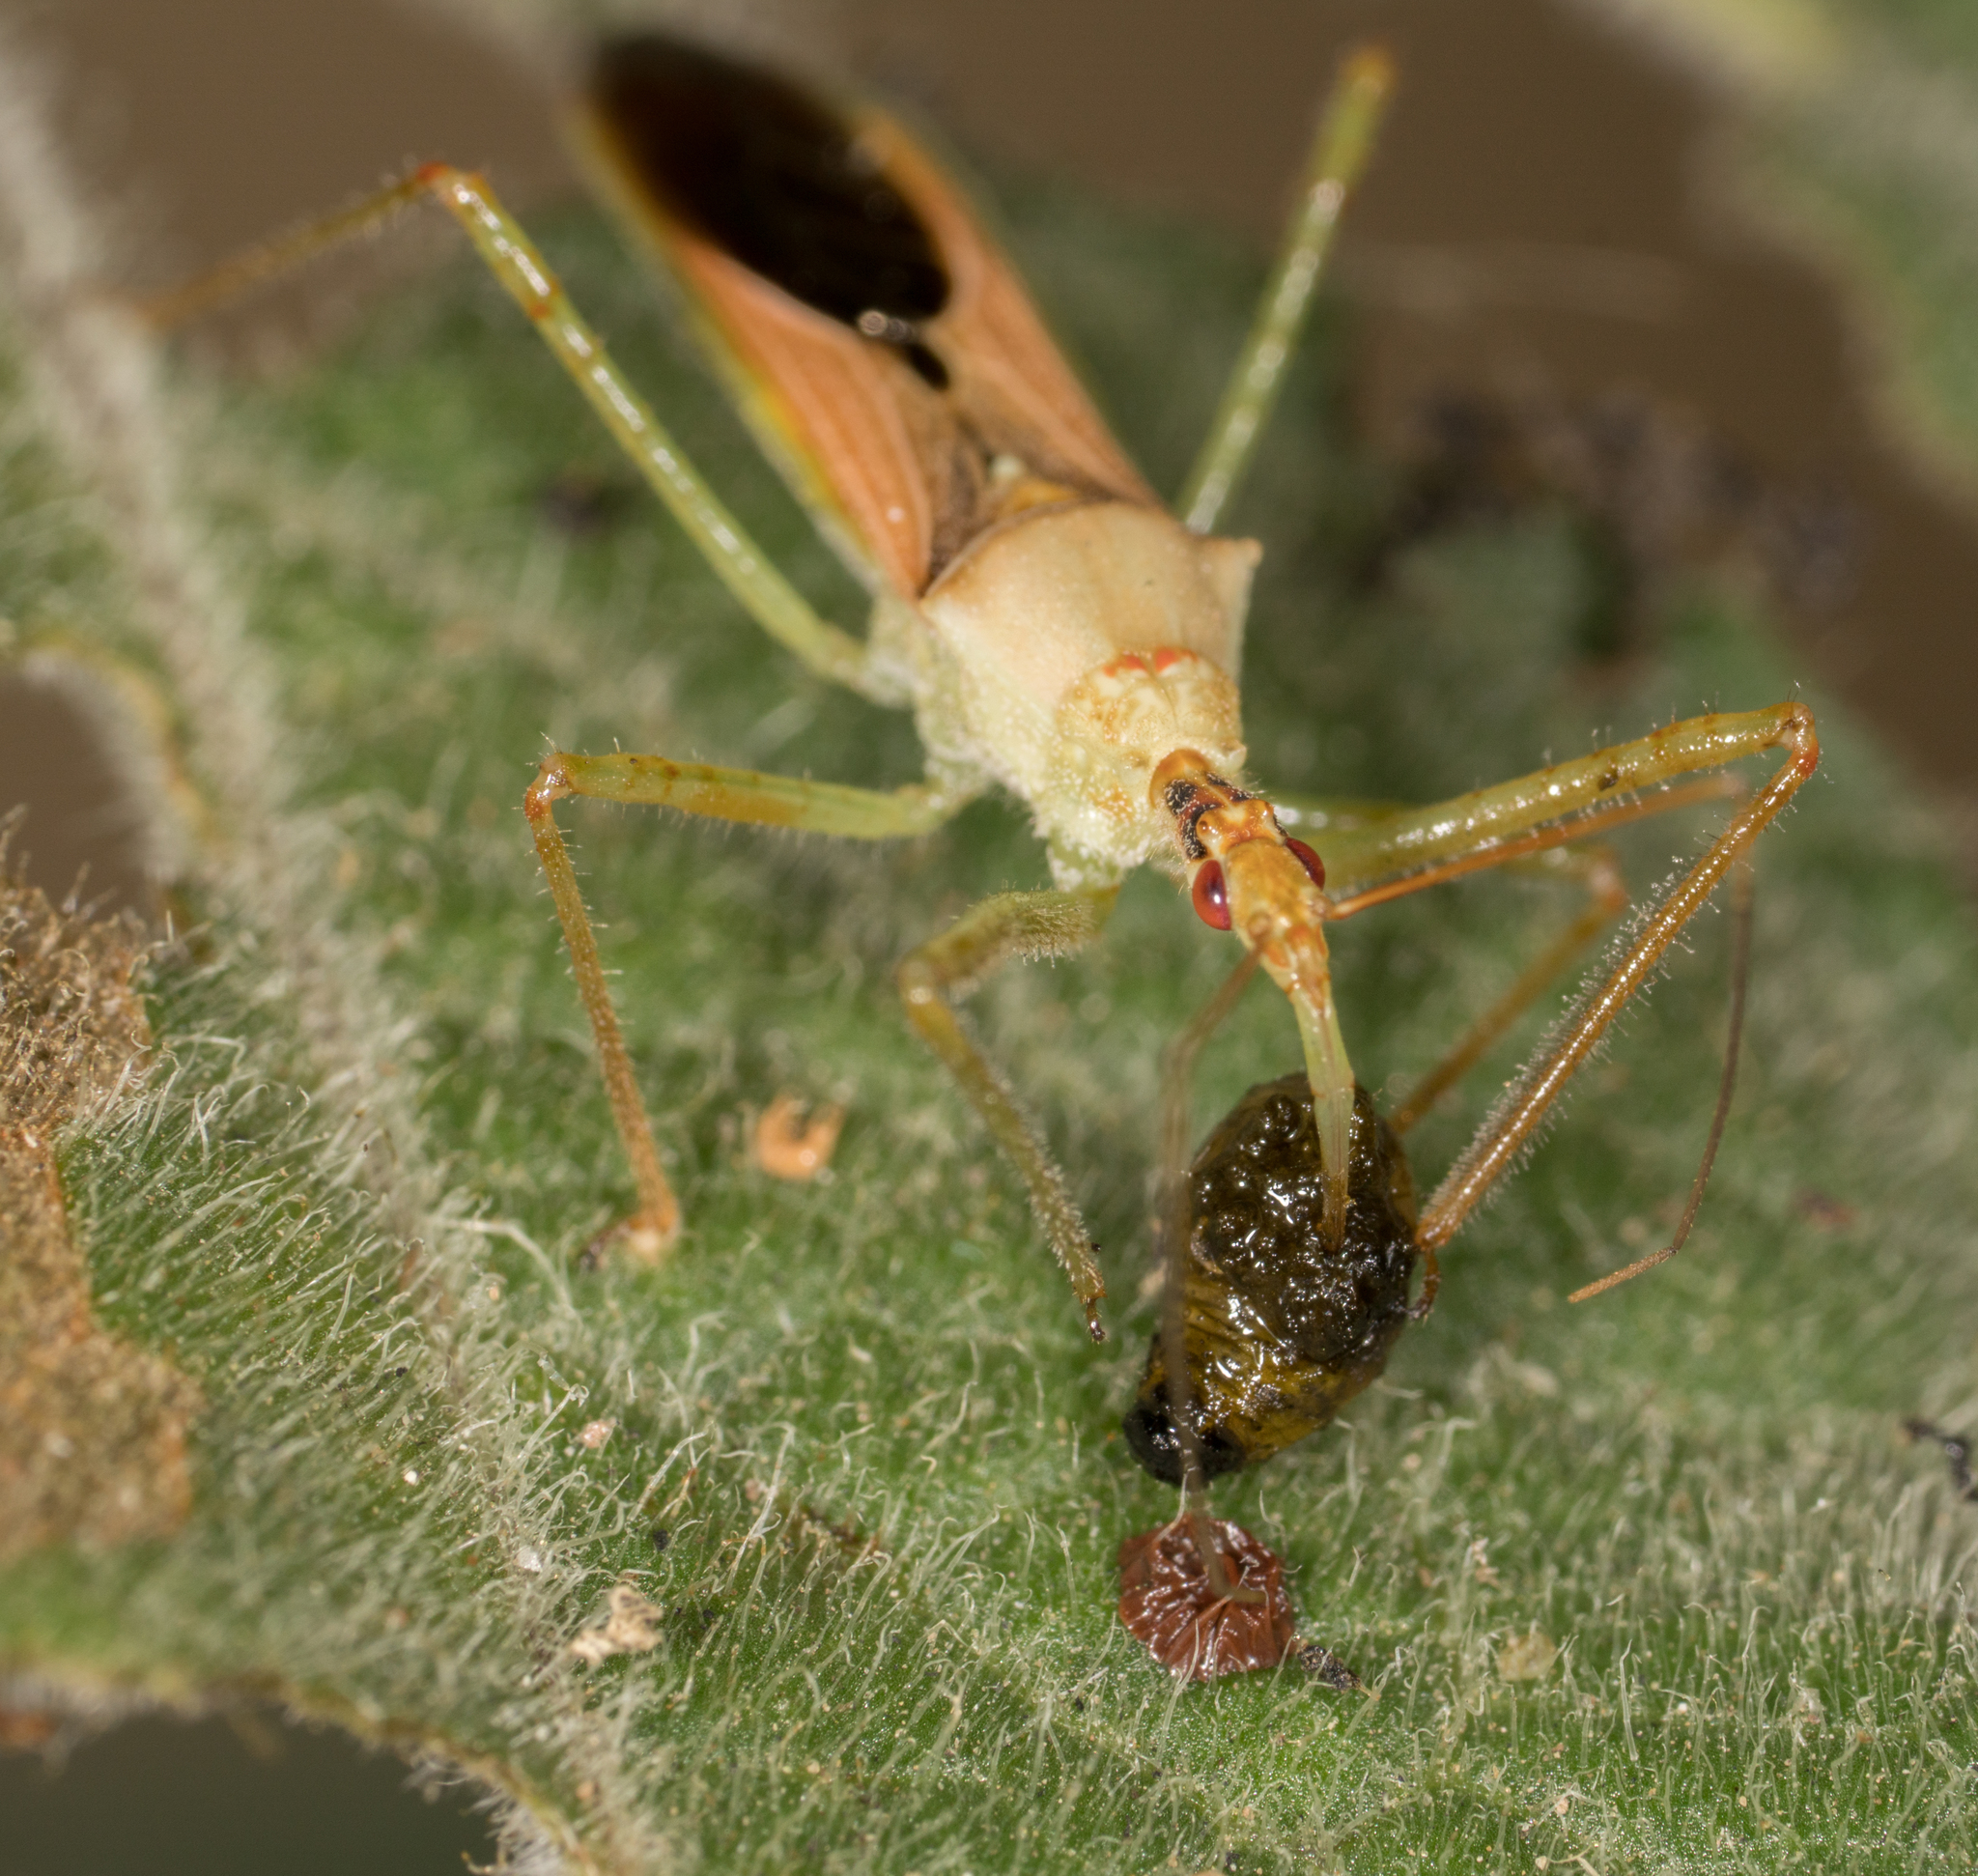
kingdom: Animalia
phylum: Arthropoda
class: Insecta
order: Hemiptera
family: Reduviidae
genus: Zelus
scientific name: Zelus renardii
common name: Assassin bug
